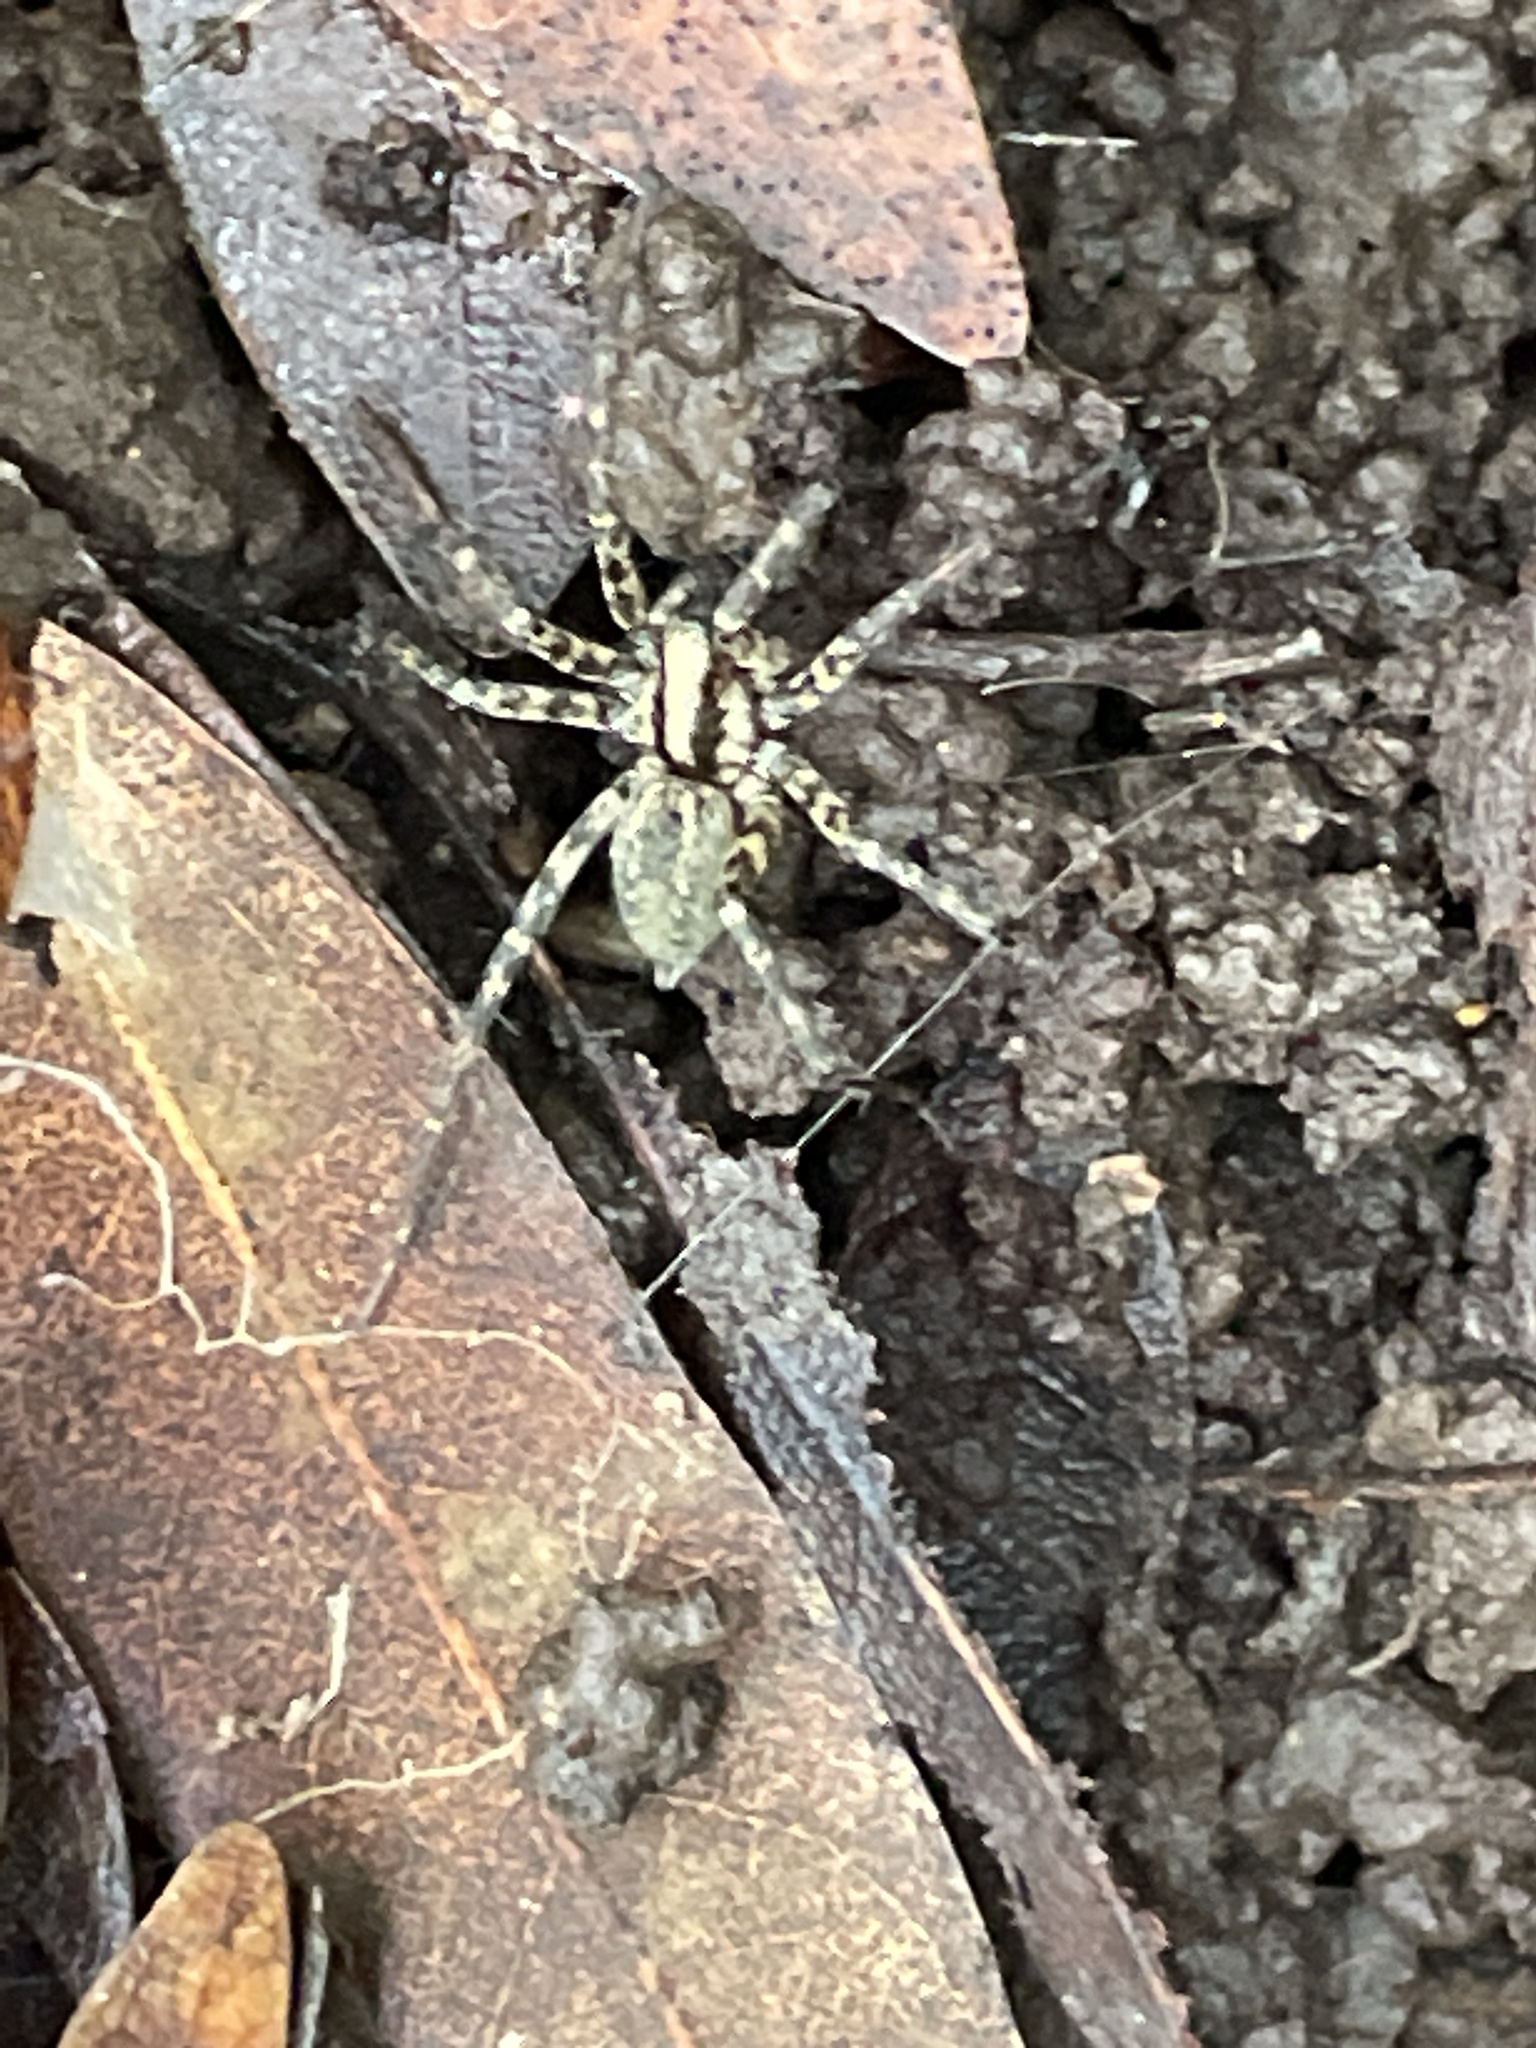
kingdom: Animalia
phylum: Arthropoda
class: Arachnida
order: Araneae
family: Agelenidae
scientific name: Agelenidae
